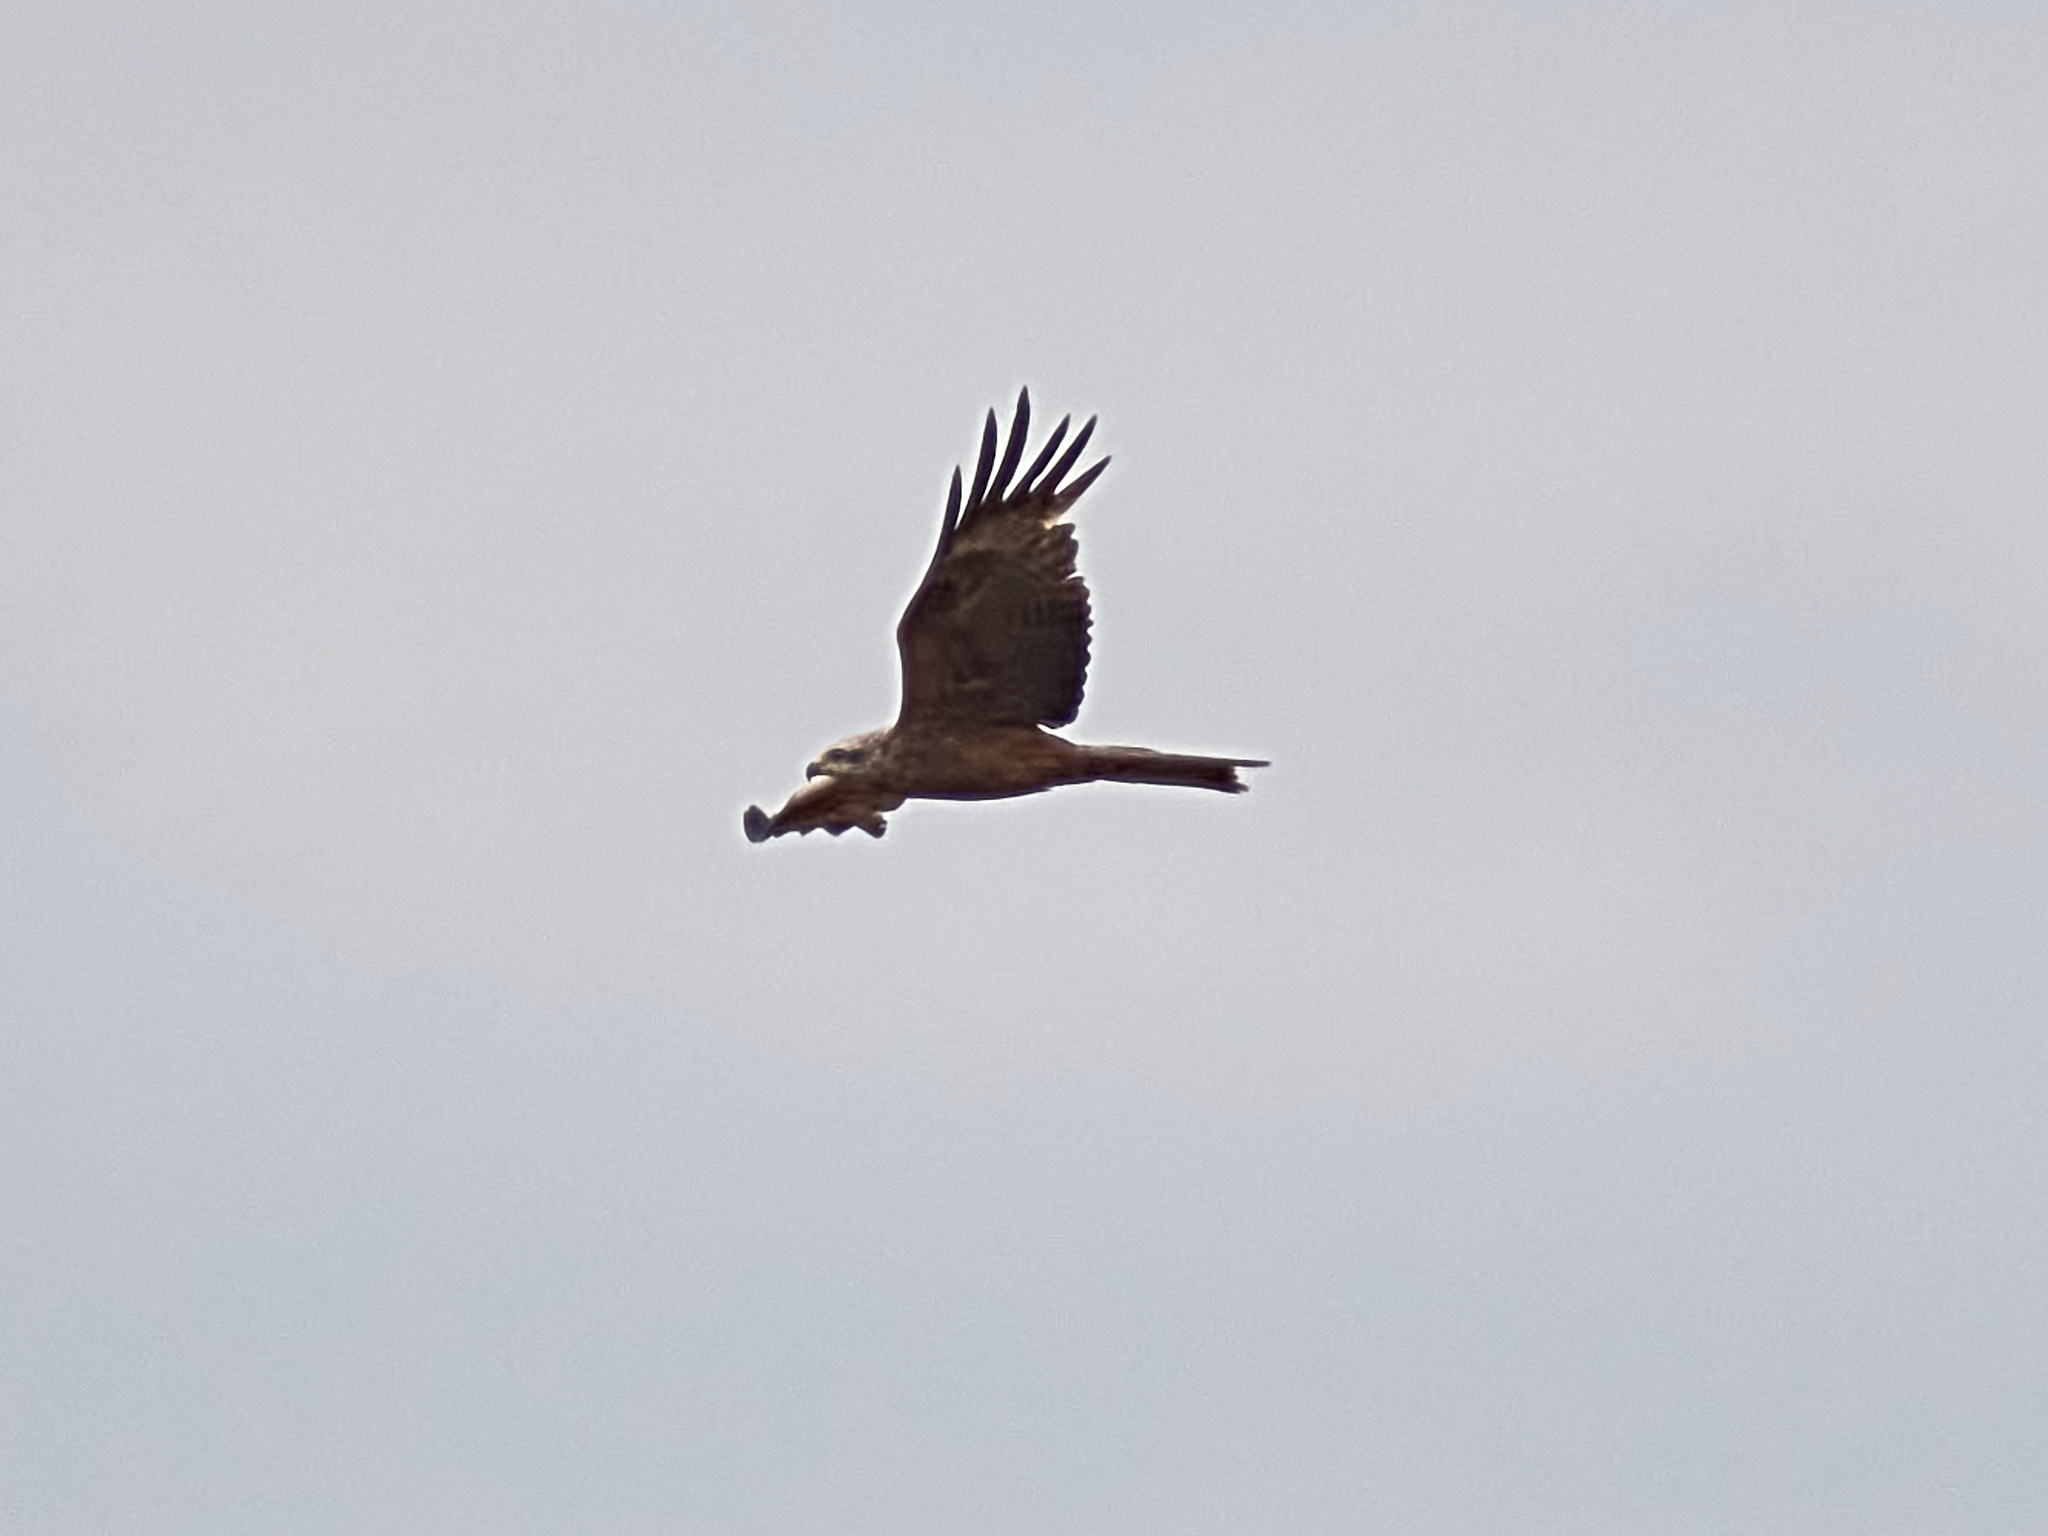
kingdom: Animalia
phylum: Chordata
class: Aves
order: Accipitriformes
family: Accipitridae
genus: Milvus
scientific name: Milvus migrans
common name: Black kite
